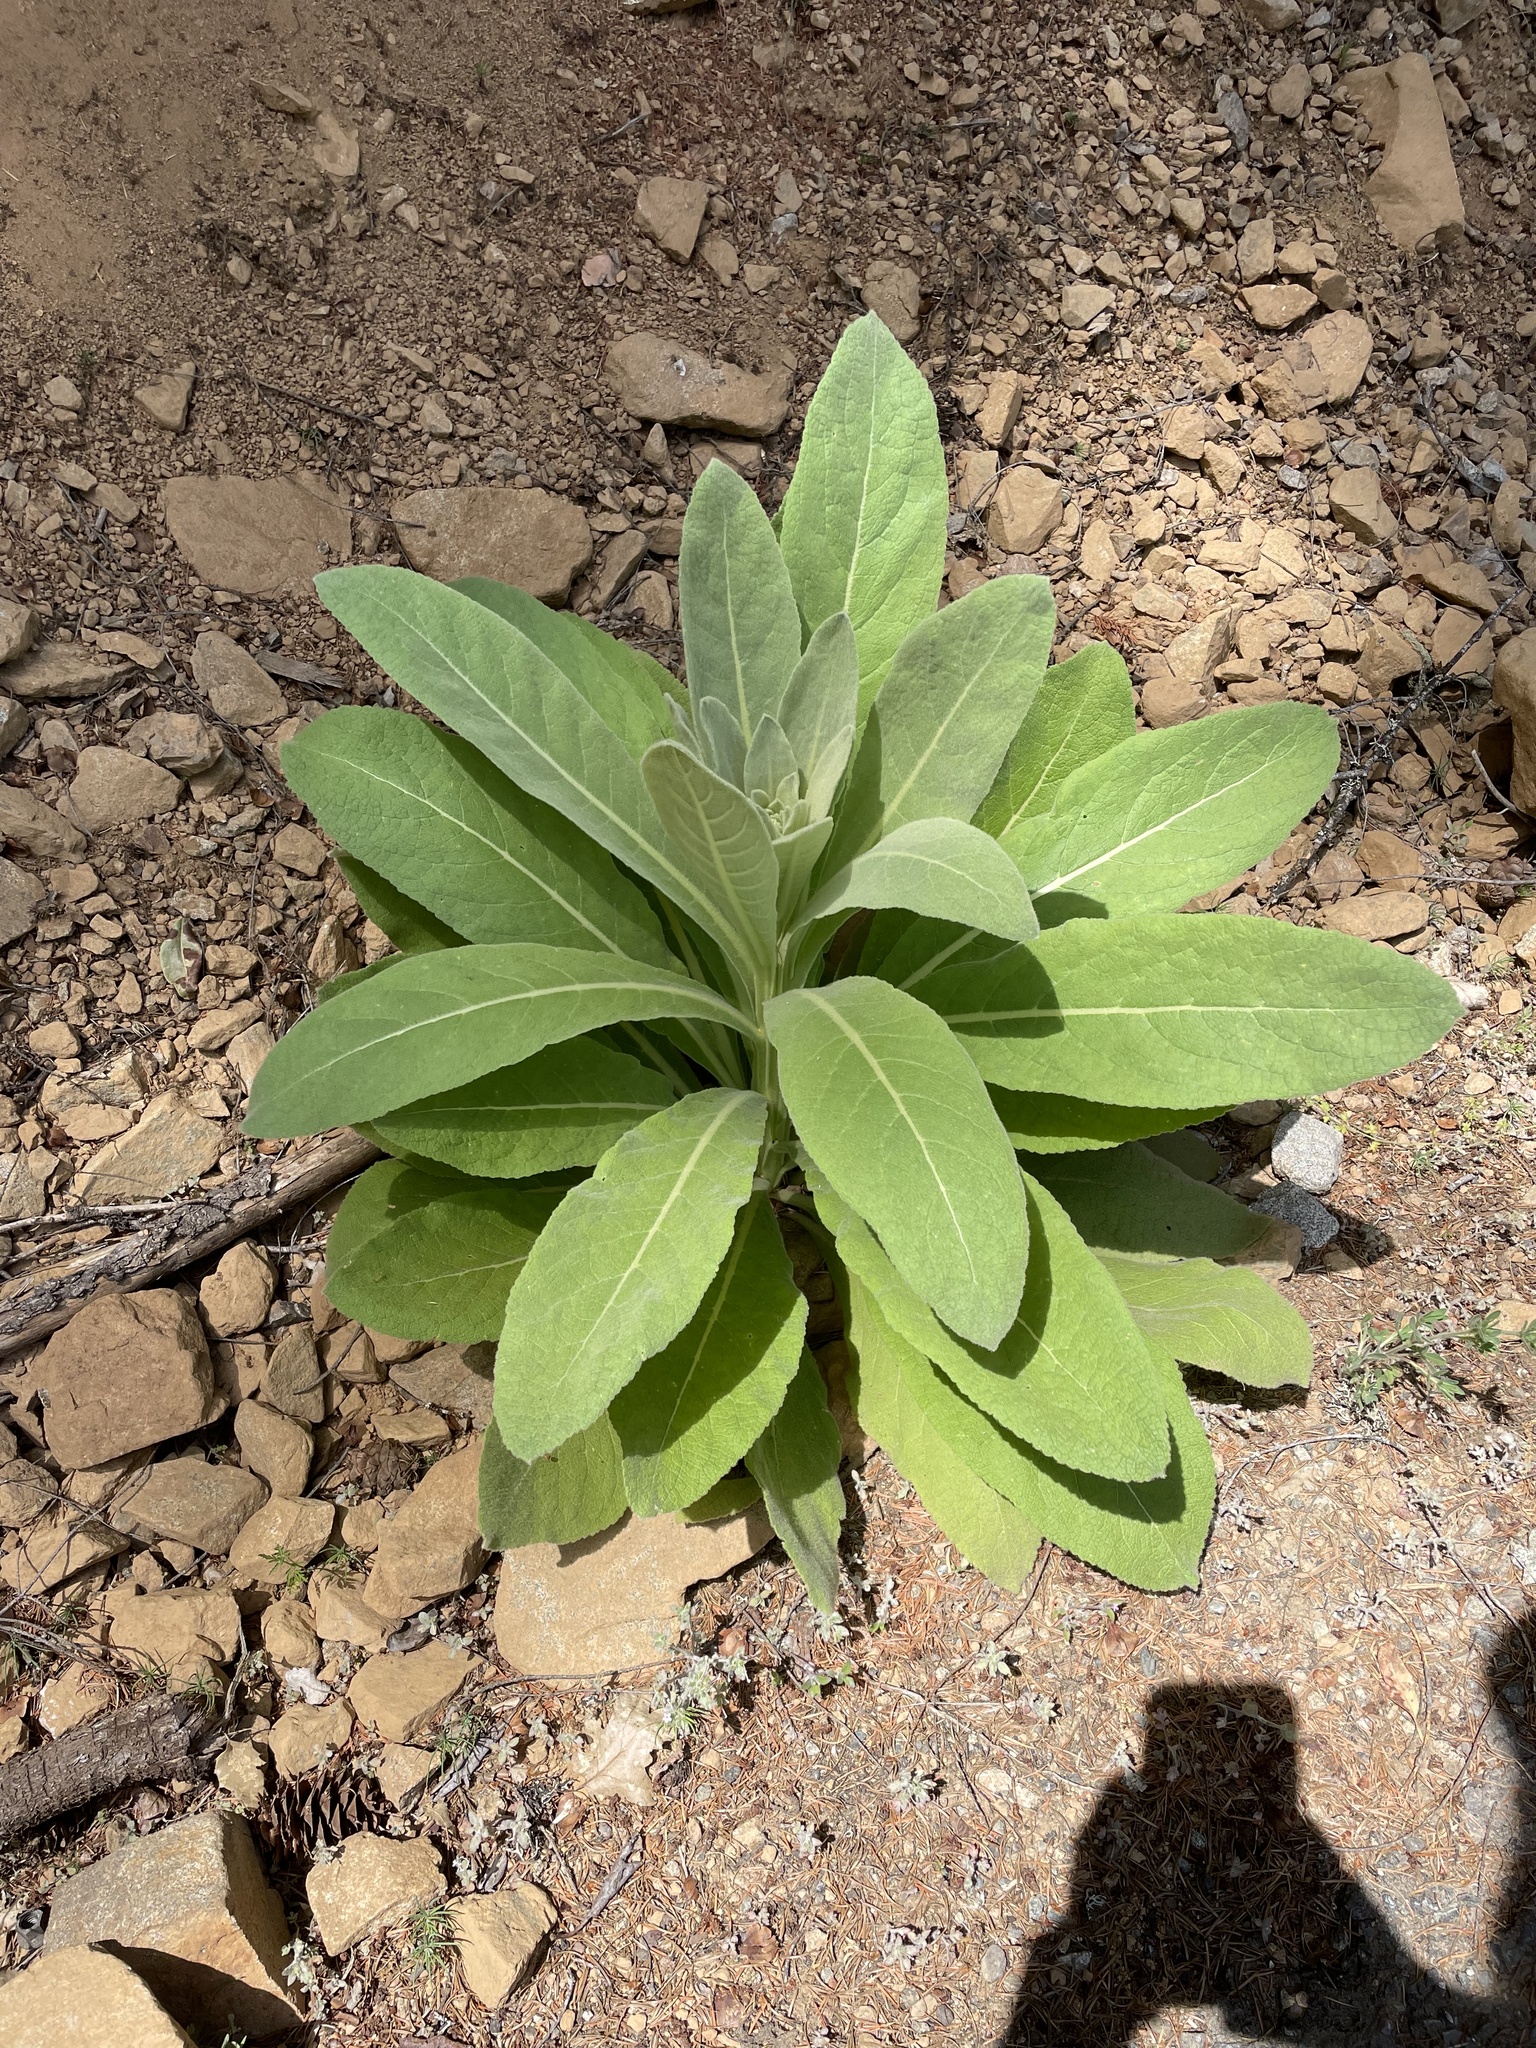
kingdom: Plantae
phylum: Tracheophyta
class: Magnoliopsida
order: Lamiales
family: Scrophulariaceae
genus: Verbascum
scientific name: Verbascum thapsus
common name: Common mullein
